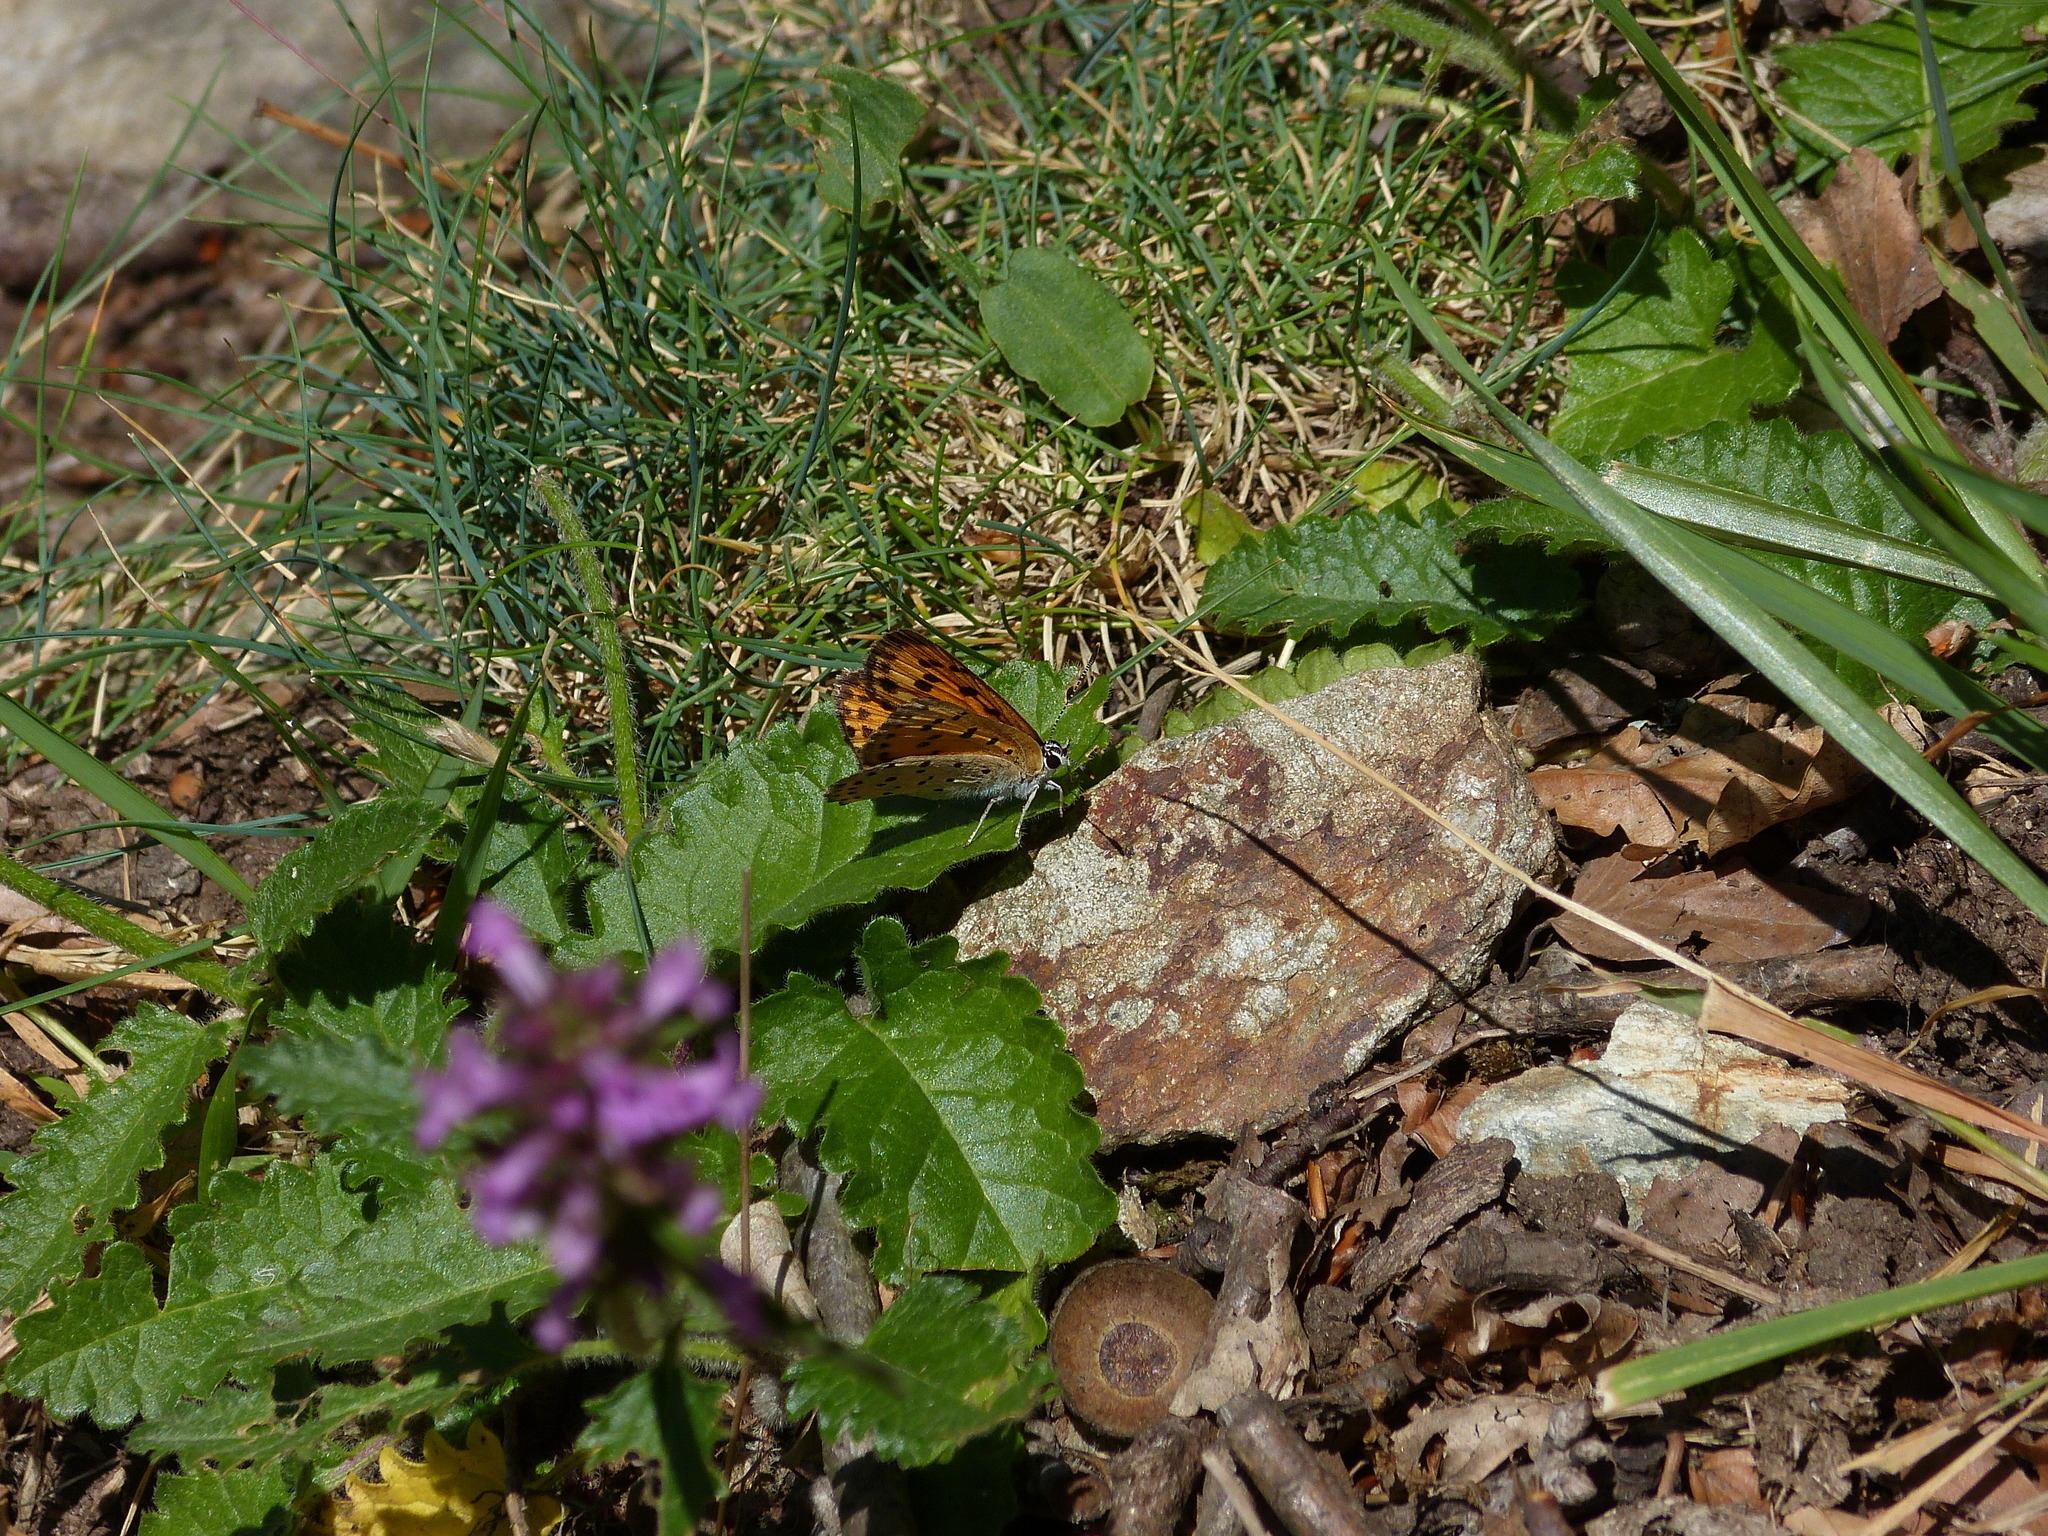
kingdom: Animalia
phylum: Arthropoda
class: Insecta
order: Lepidoptera
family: Lycaenidae
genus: Lycaena
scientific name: Lycaena alciphron
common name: Purple-shot copper
